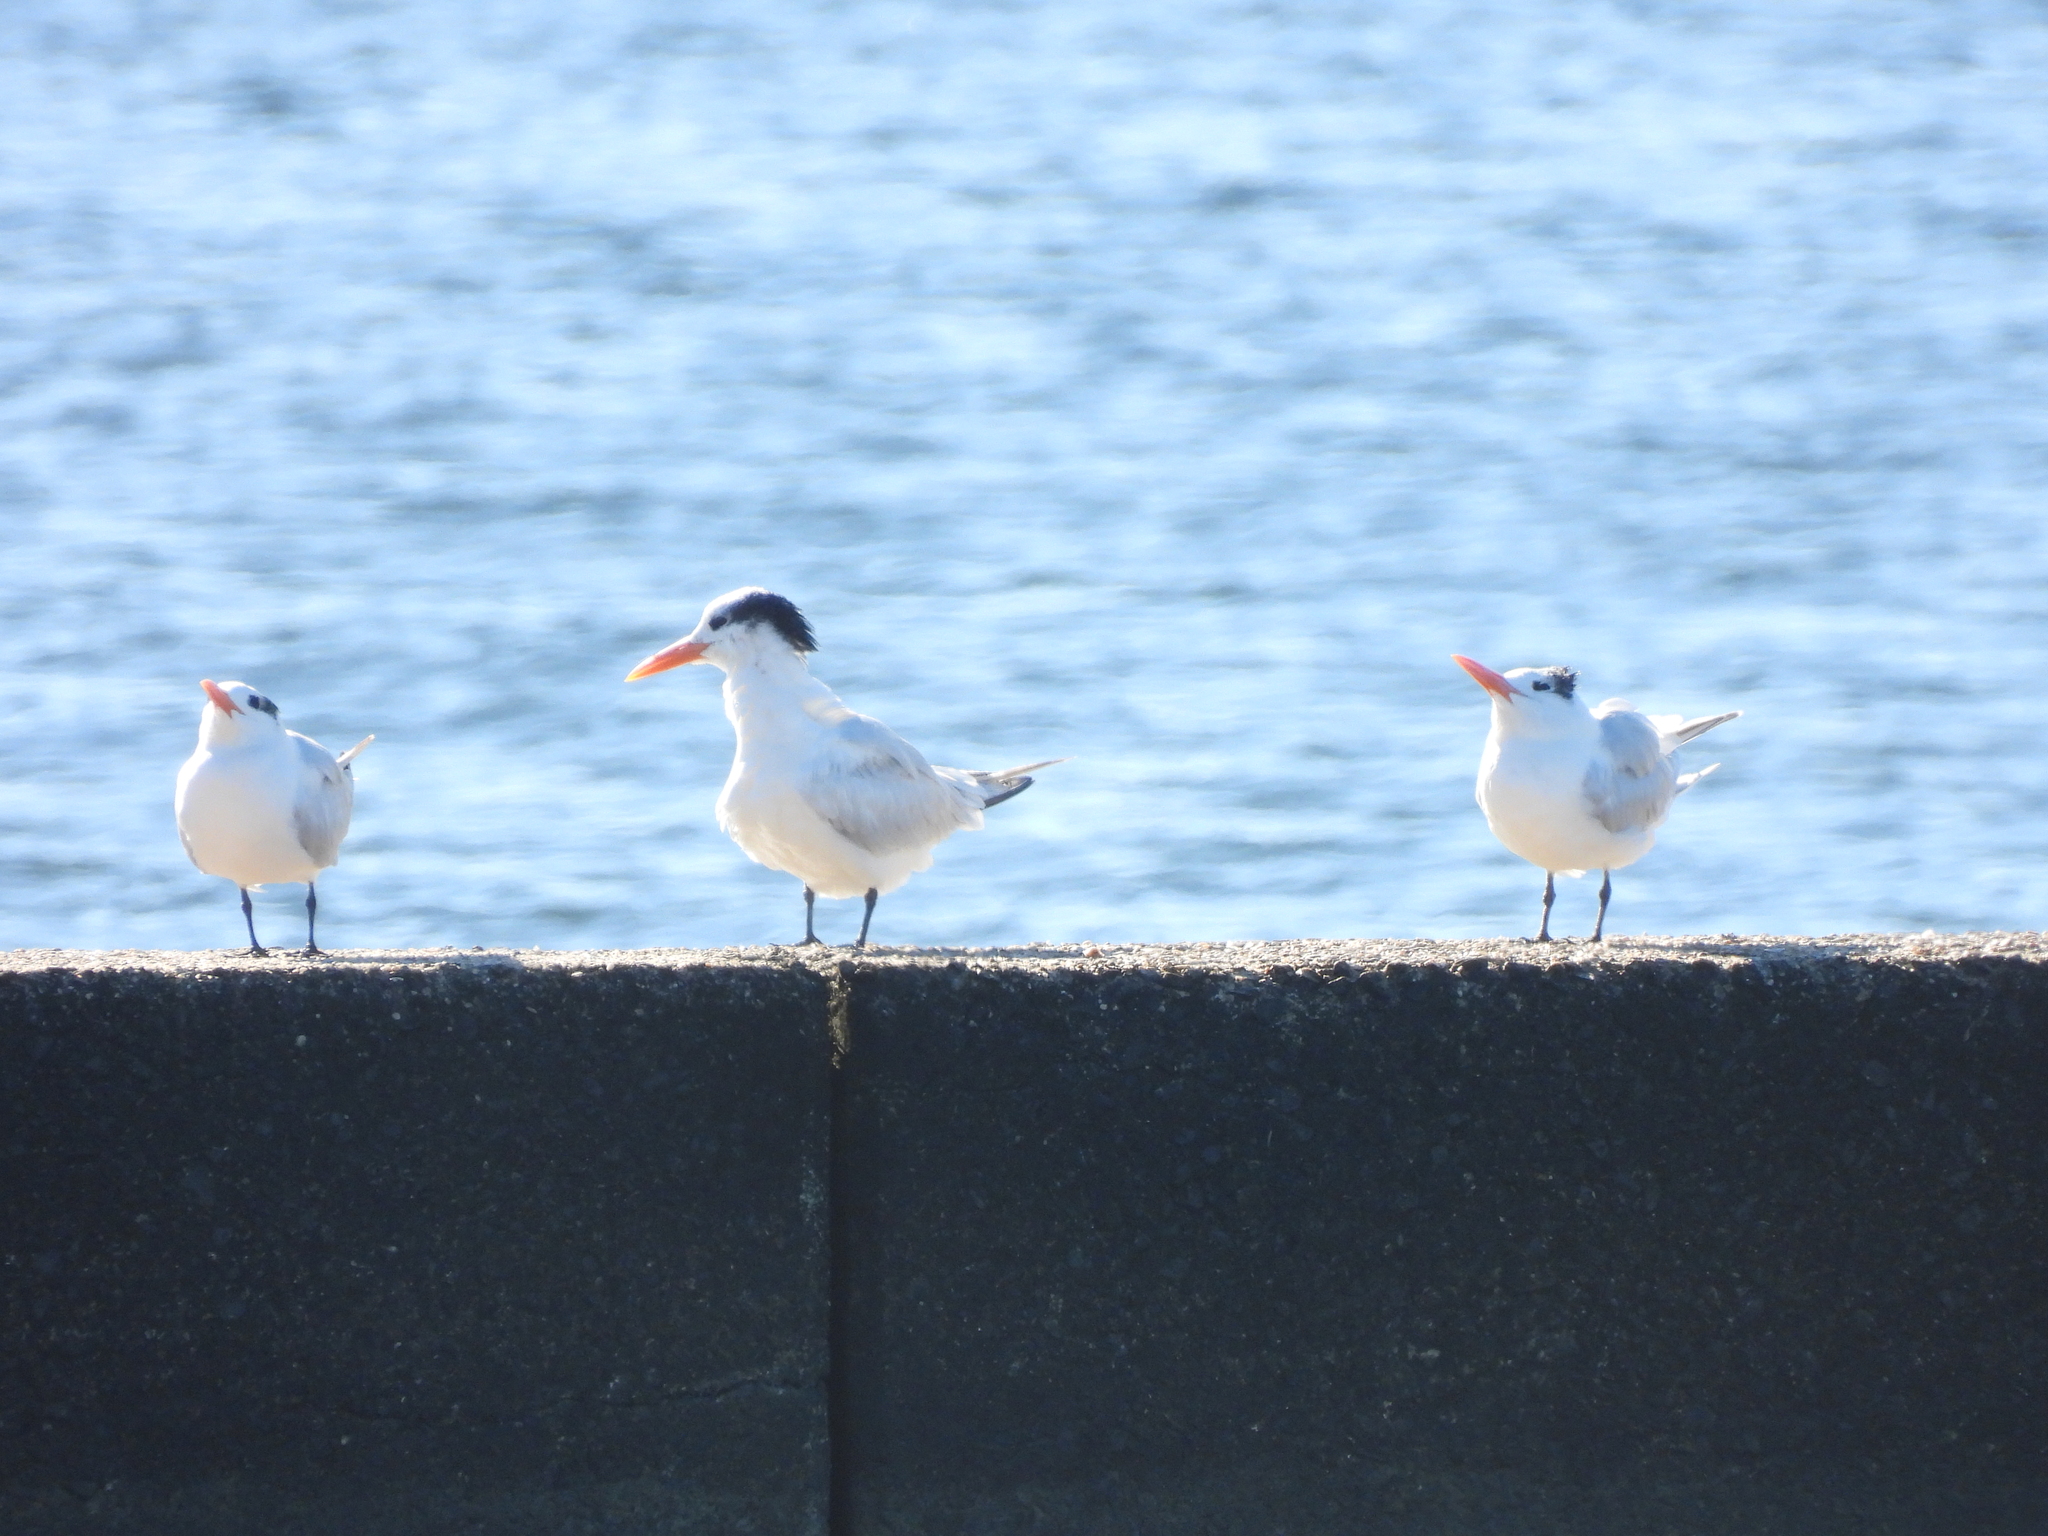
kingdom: Animalia
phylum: Chordata
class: Aves
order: Charadriiformes
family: Laridae
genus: Thalasseus
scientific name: Thalasseus maximus
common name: Royal tern
